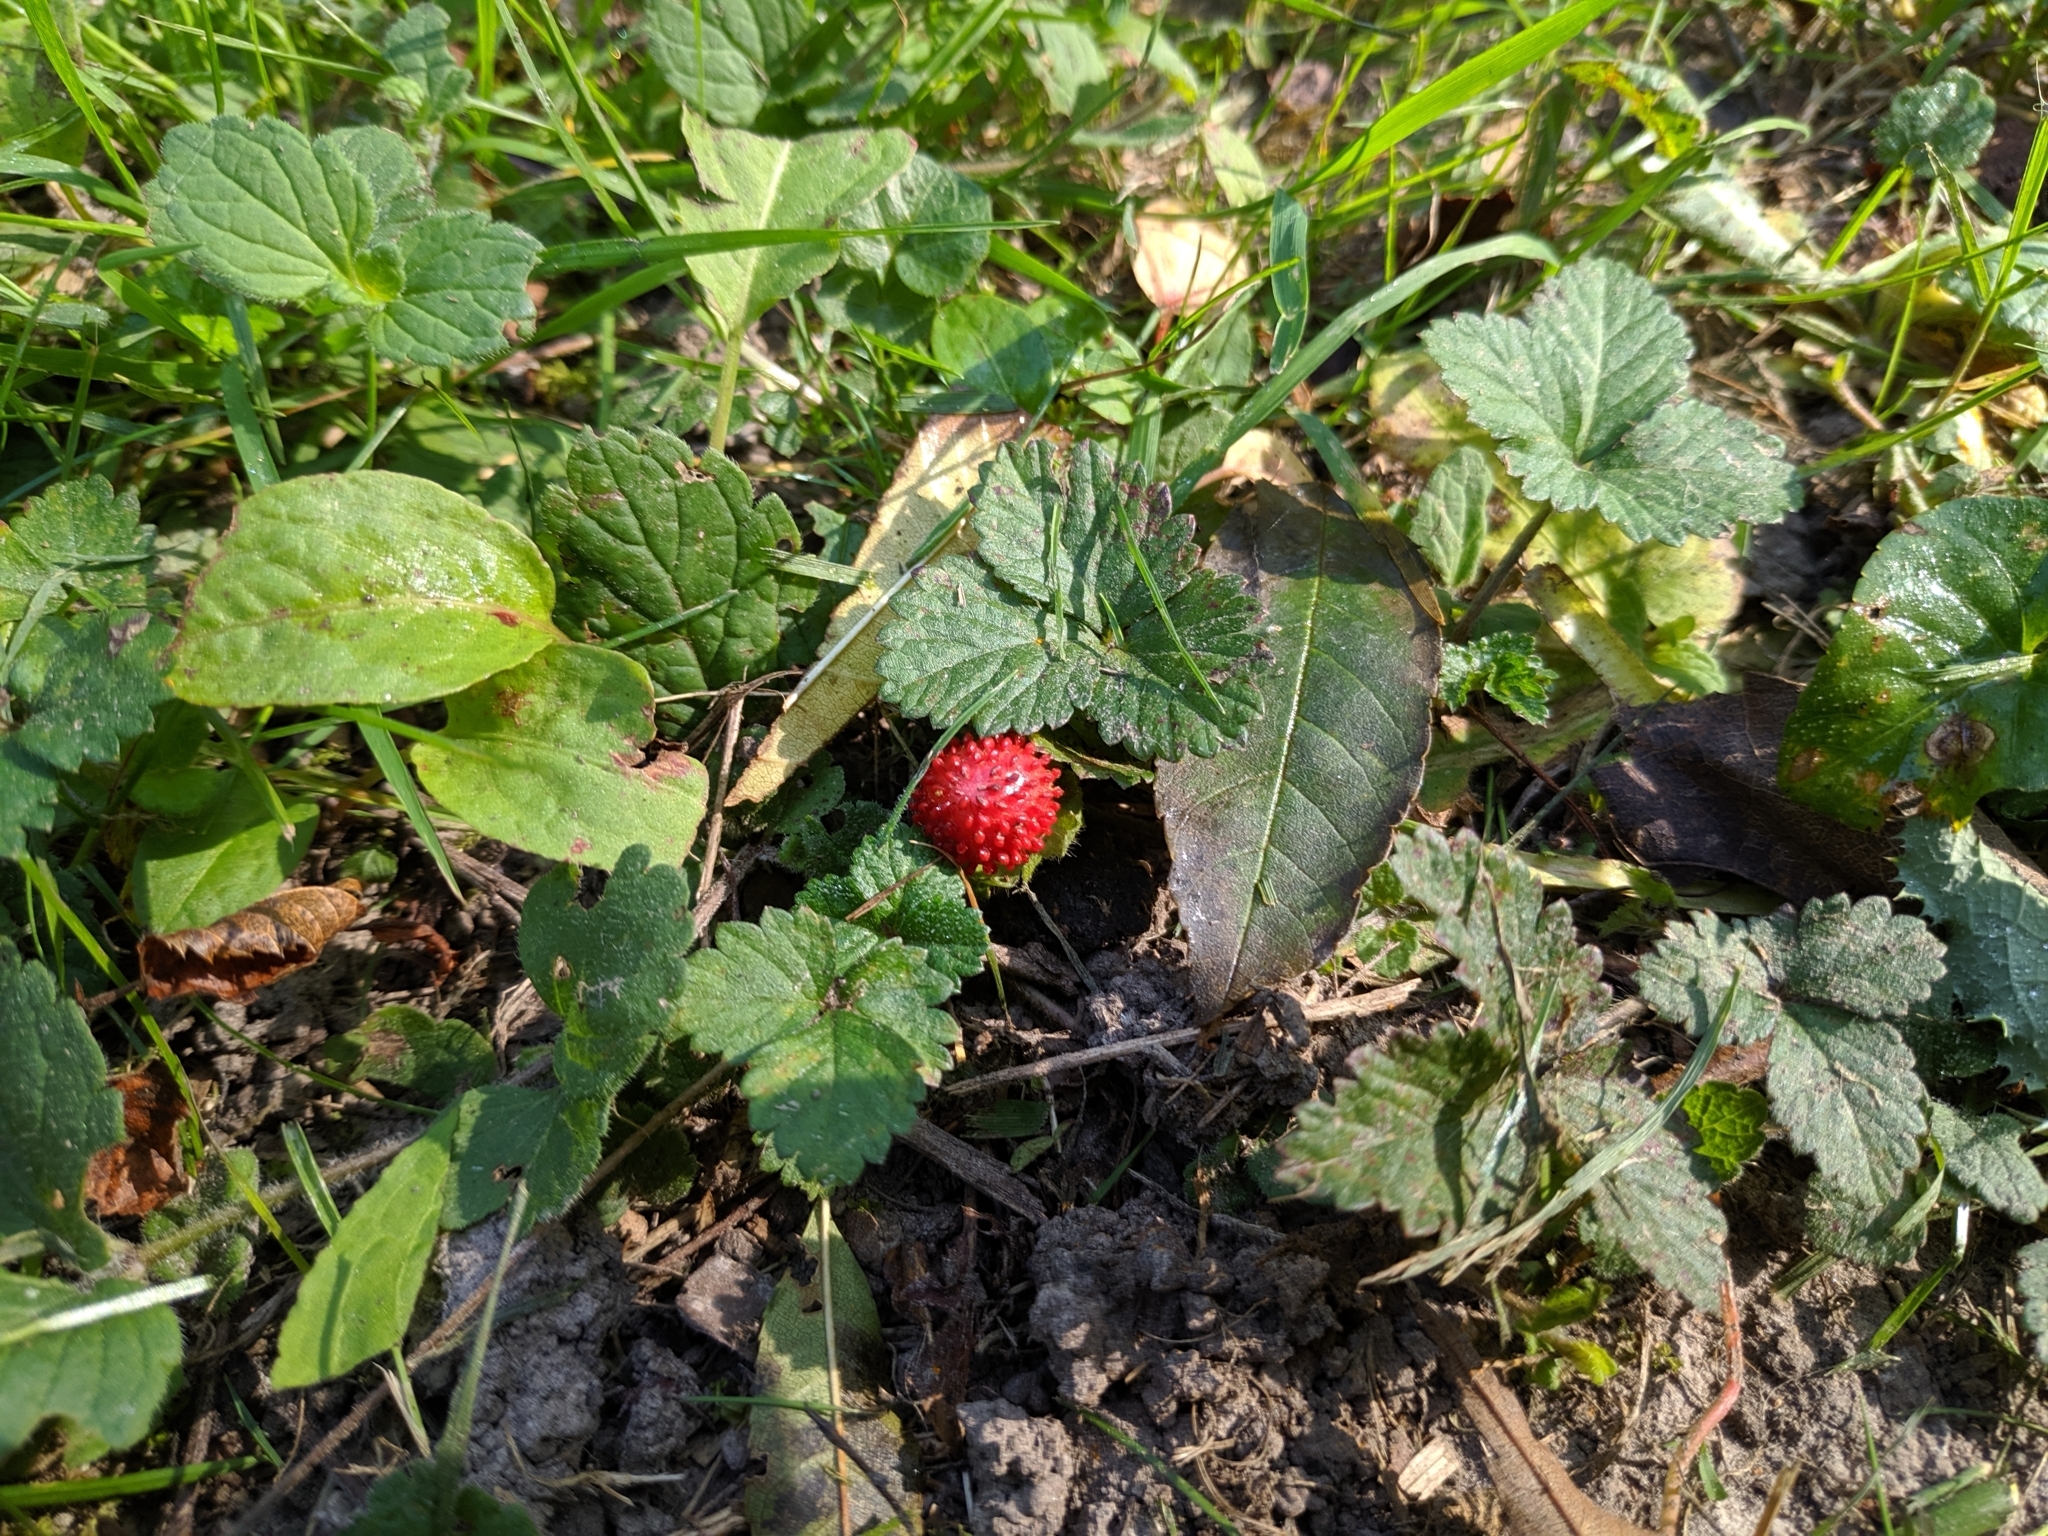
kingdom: Plantae
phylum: Tracheophyta
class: Magnoliopsida
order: Rosales
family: Rosaceae
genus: Potentilla
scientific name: Potentilla indica
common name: Yellow-flowered strawberry
